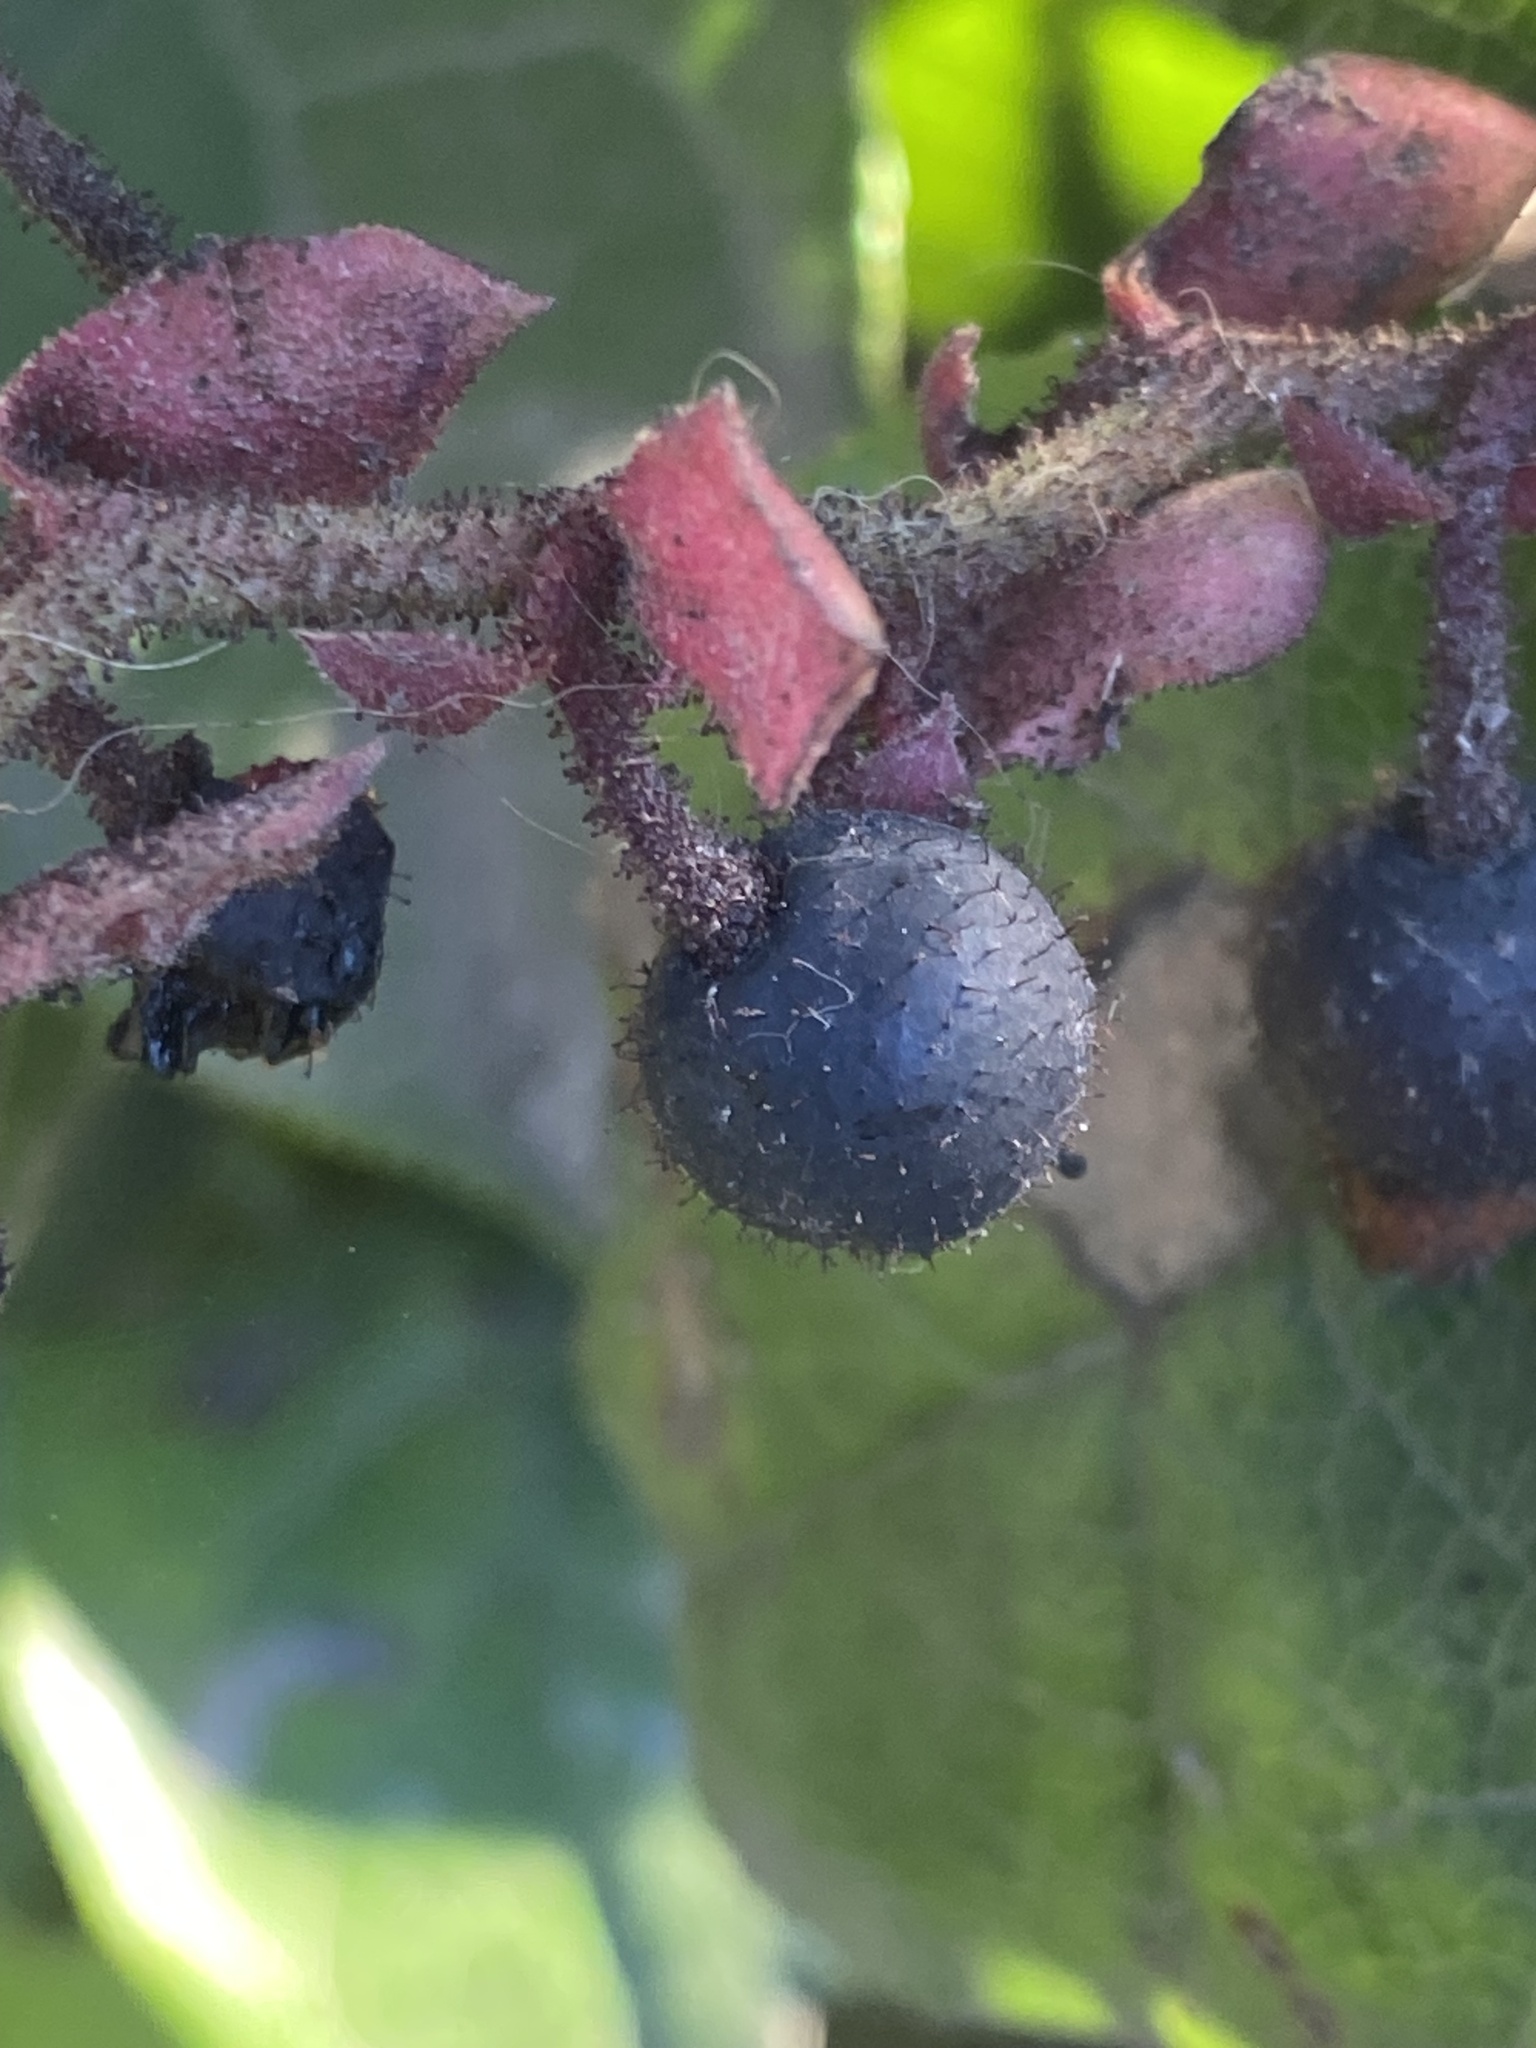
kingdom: Plantae
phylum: Tracheophyta
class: Magnoliopsida
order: Ericales
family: Ericaceae
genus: Gaultheria
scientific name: Gaultheria shallon
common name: Shallon
